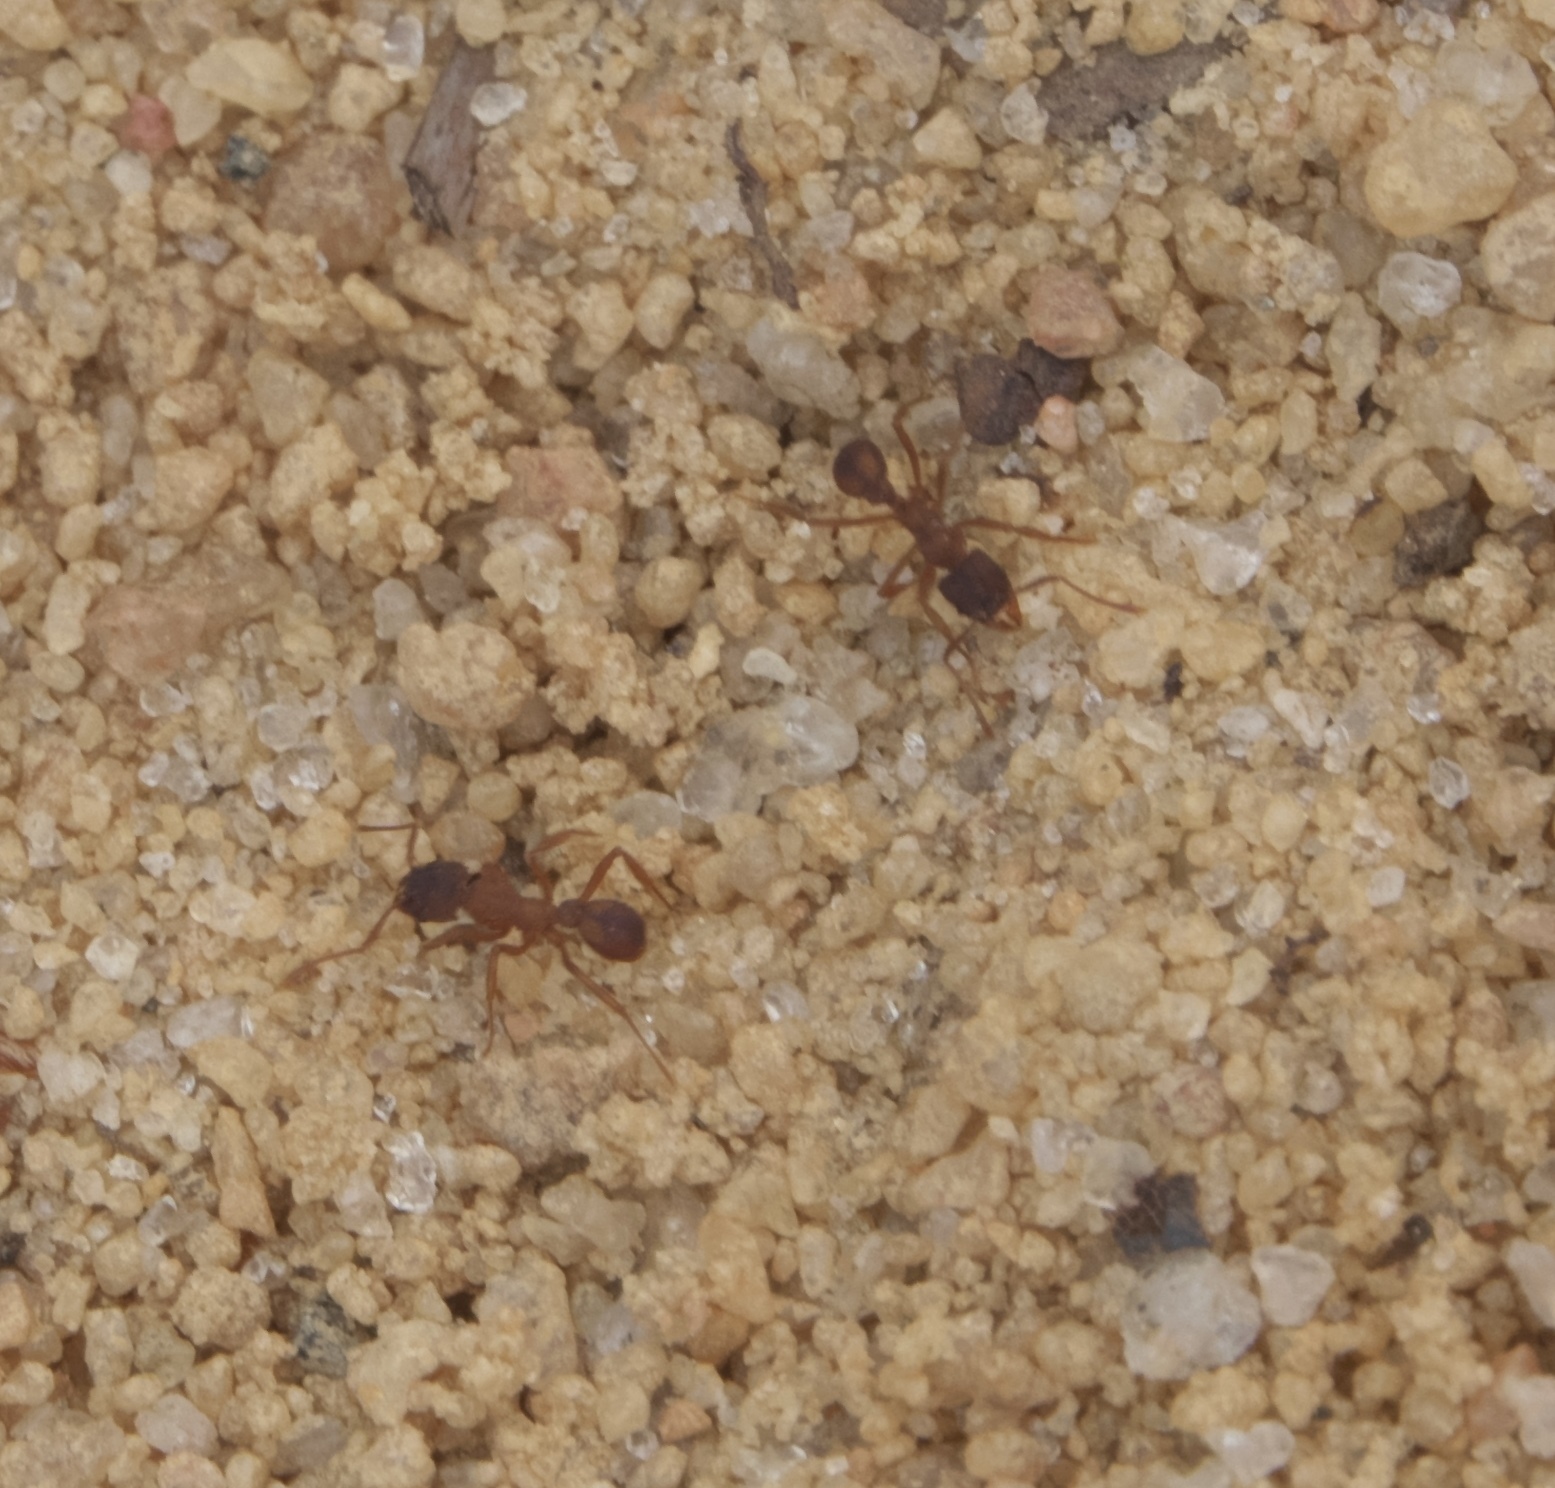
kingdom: Animalia
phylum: Arthropoda
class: Insecta
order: Hymenoptera
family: Formicidae
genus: Trachymyrmex
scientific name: Trachymyrmex septentrionalis
